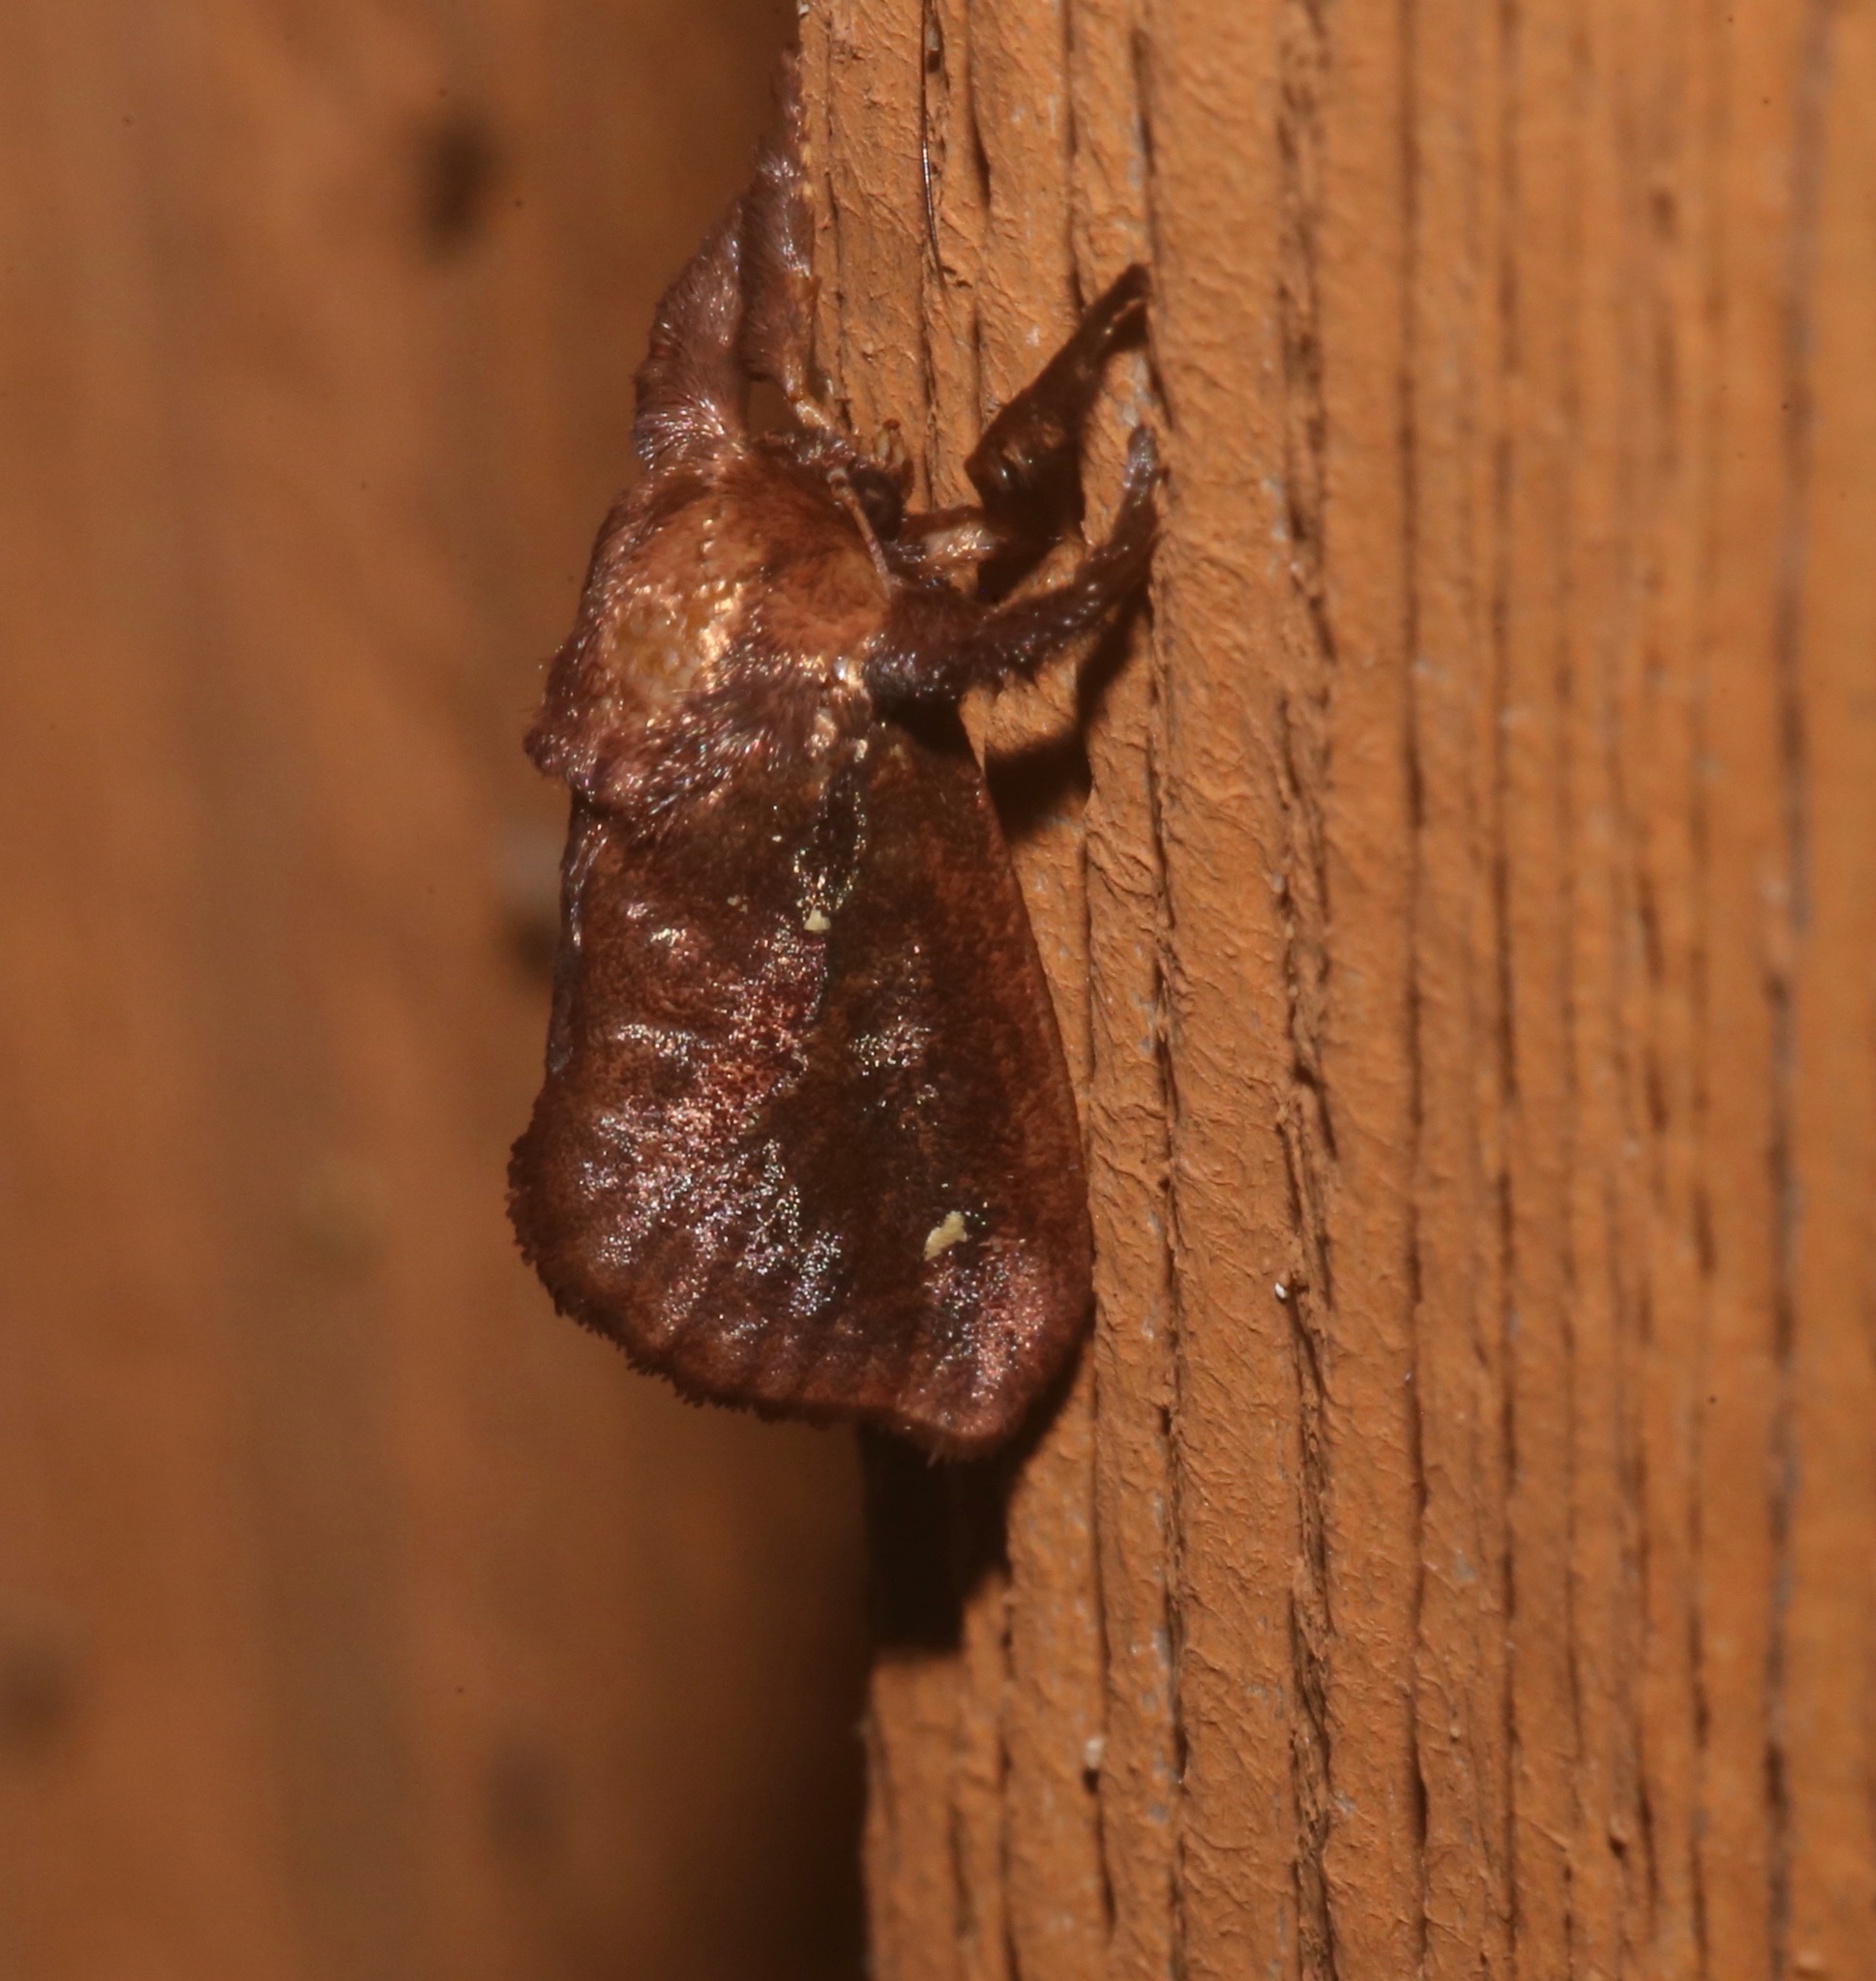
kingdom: Animalia
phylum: Arthropoda
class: Insecta
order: Lepidoptera
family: Limacodidae
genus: Acharia
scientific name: Acharia stimulea
